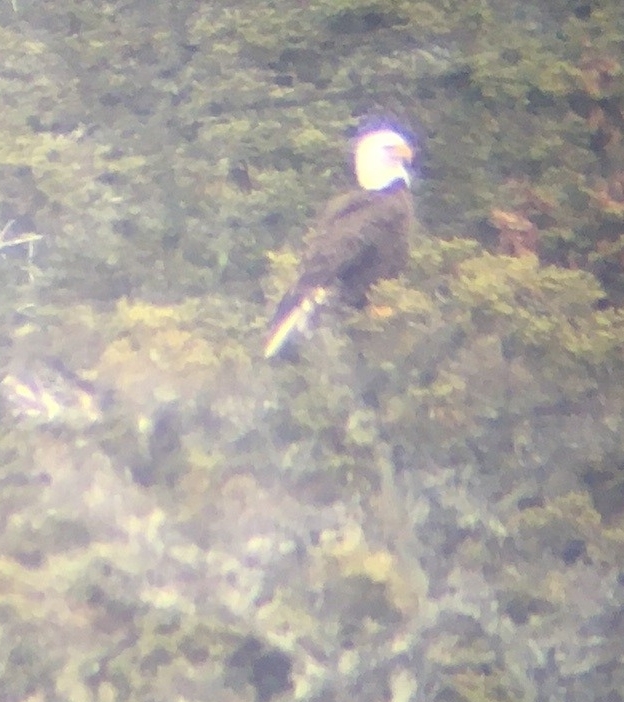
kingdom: Animalia
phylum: Chordata
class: Aves
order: Accipitriformes
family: Accipitridae
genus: Haliaeetus
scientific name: Haliaeetus leucocephalus
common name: Bald eagle
